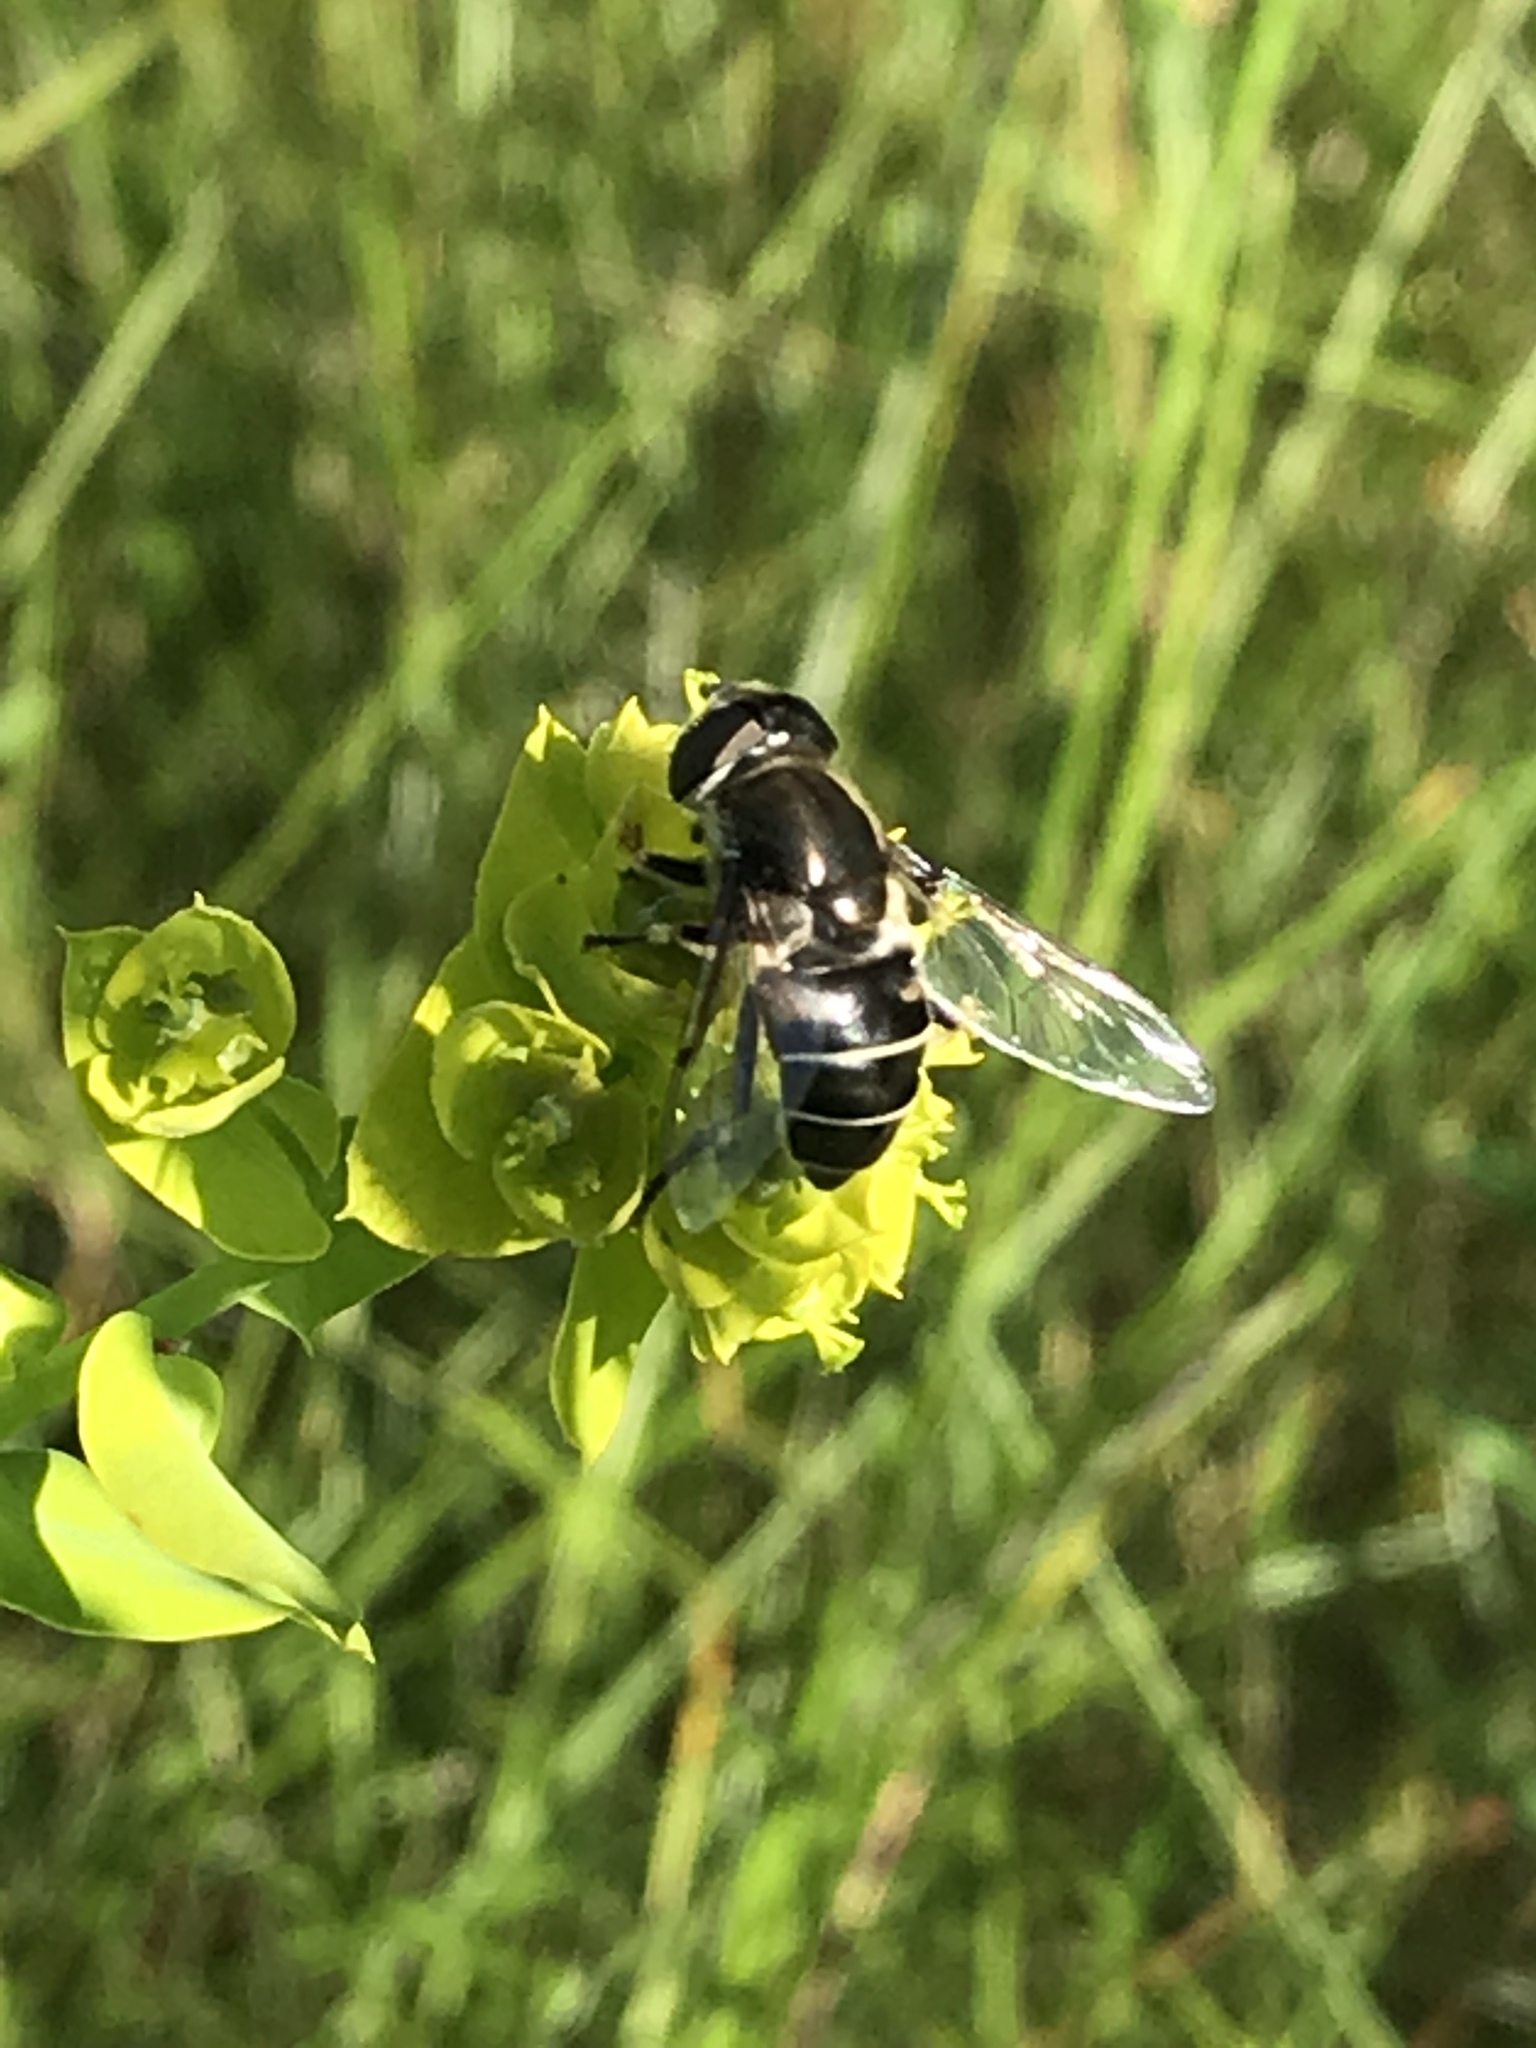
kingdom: Animalia
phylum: Arthropoda
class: Insecta
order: Diptera
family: Syrphidae
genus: Eristalis
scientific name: Eristalis dimidiata
